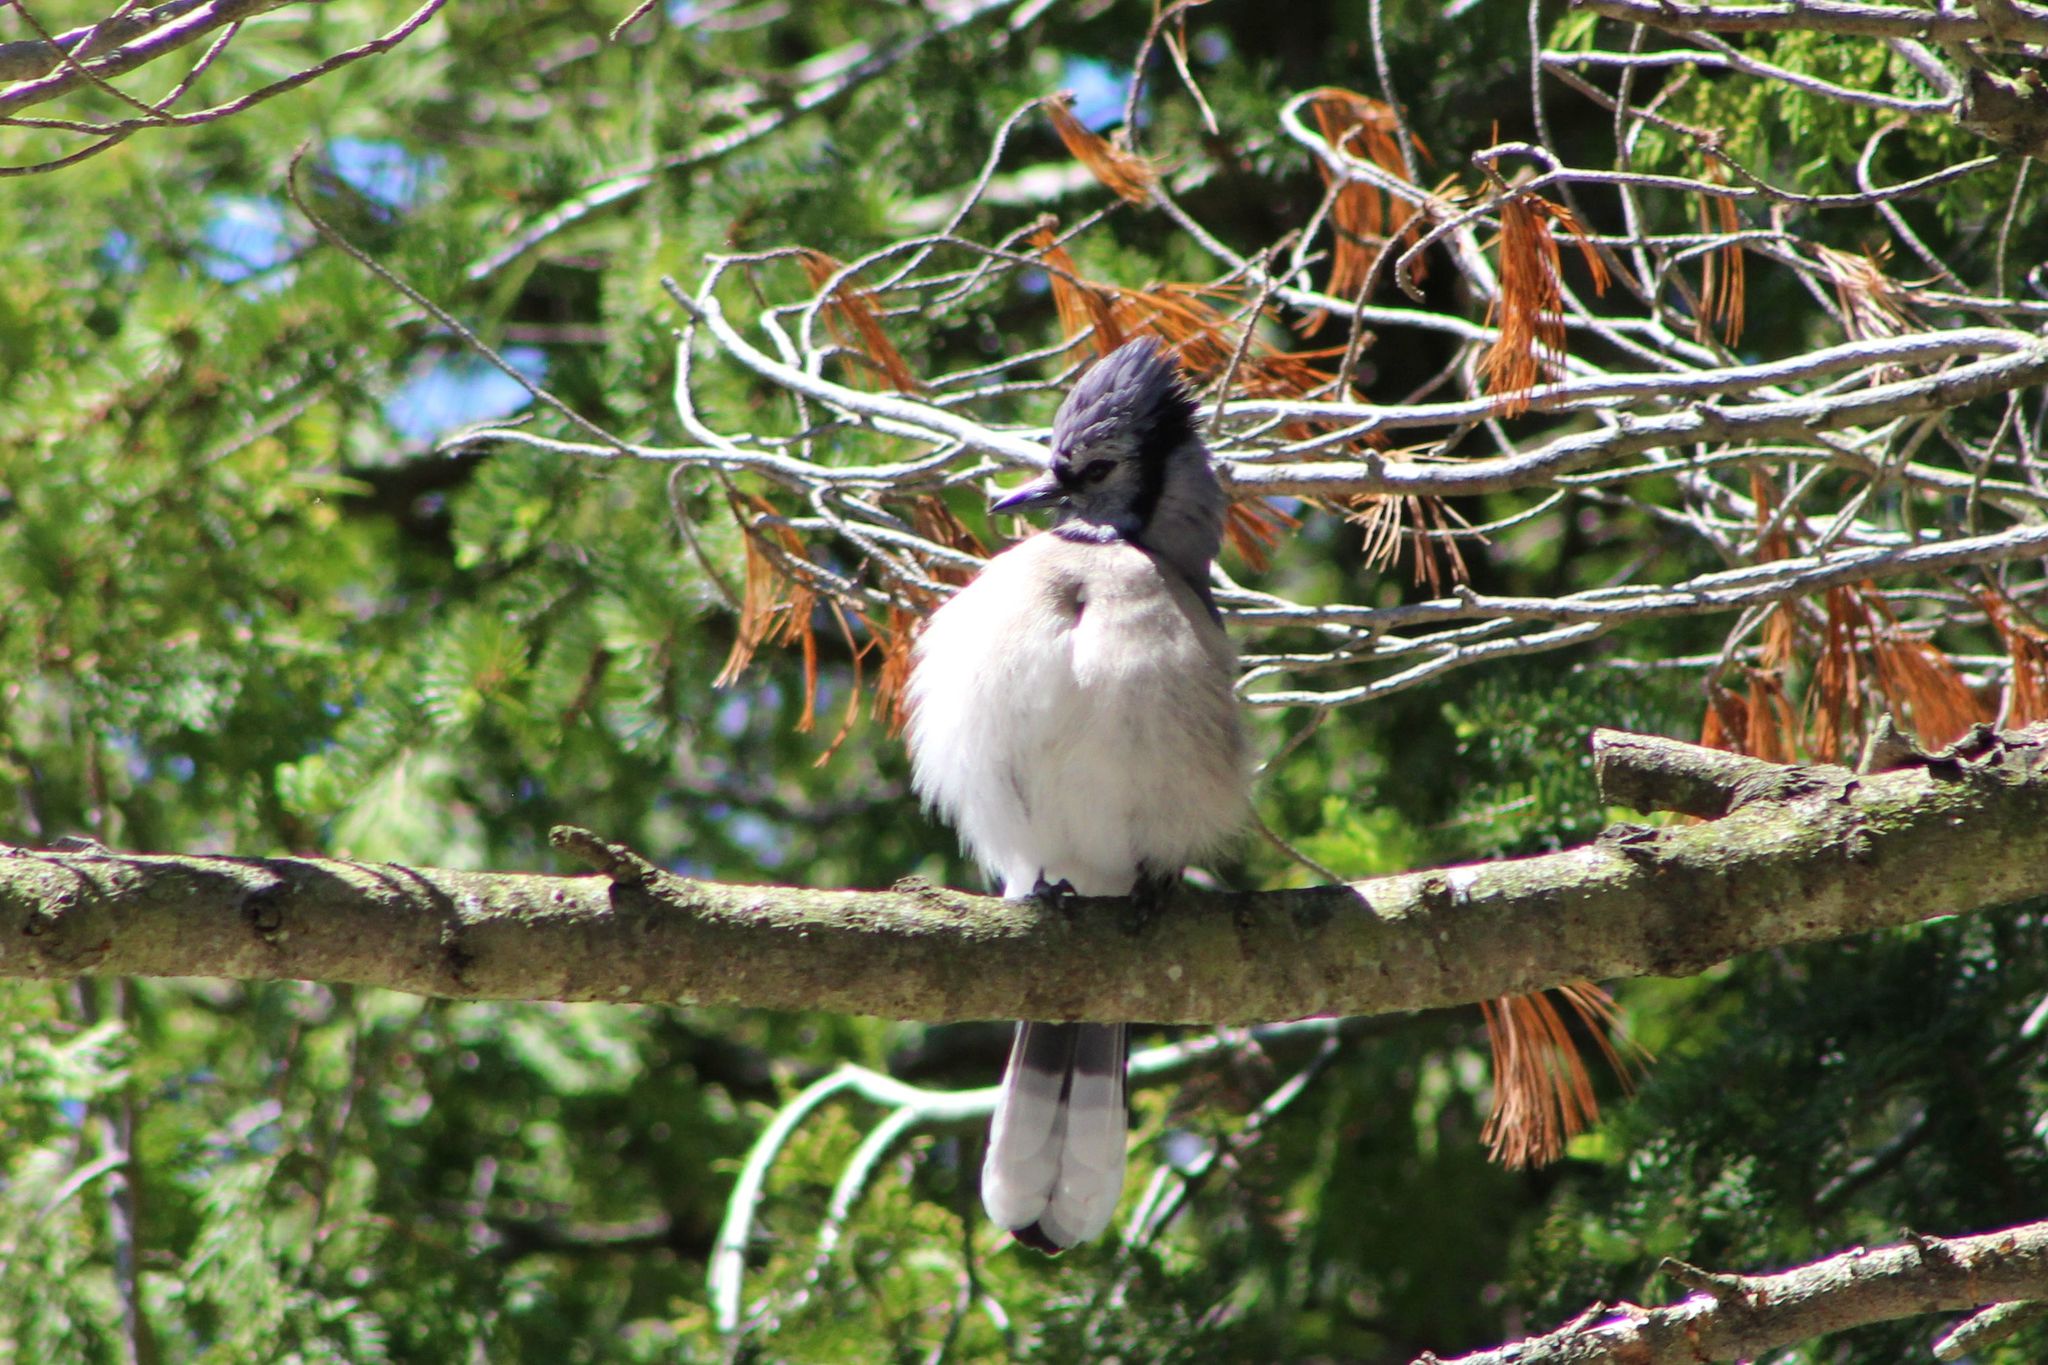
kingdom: Animalia
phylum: Chordata
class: Aves
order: Passeriformes
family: Corvidae
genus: Cyanocitta
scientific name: Cyanocitta cristata
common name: Blue jay
